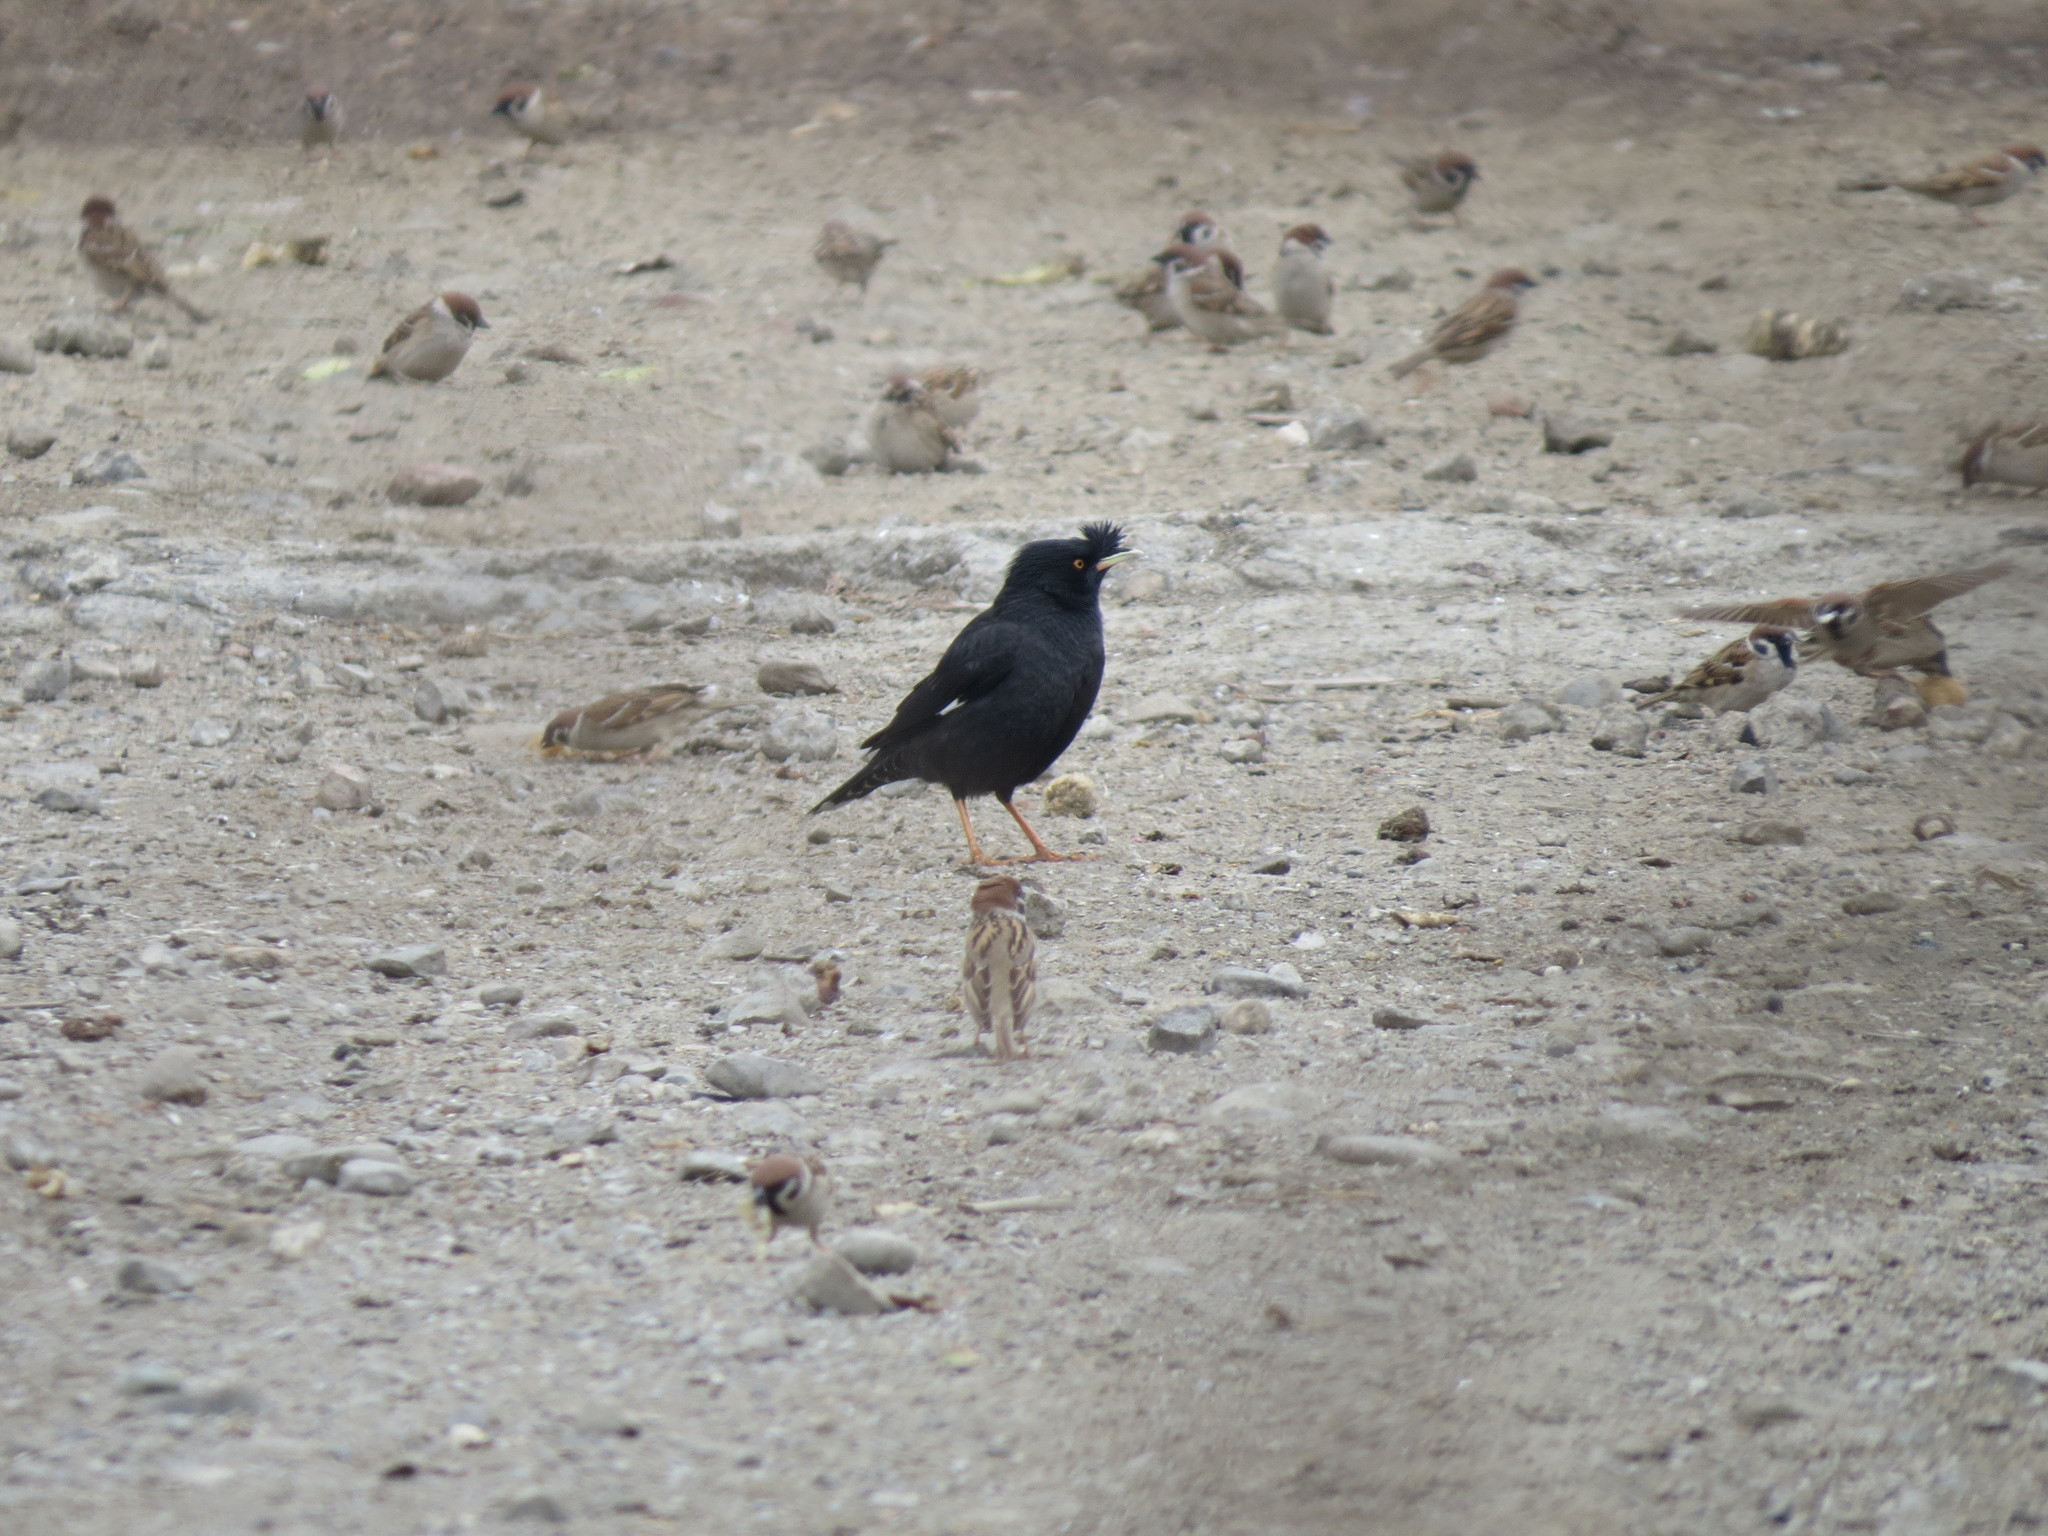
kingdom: Animalia
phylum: Chordata
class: Aves
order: Passeriformes
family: Sturnidae
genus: Acridotheres
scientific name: Acridotheres cristatellus
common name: Crested myna
